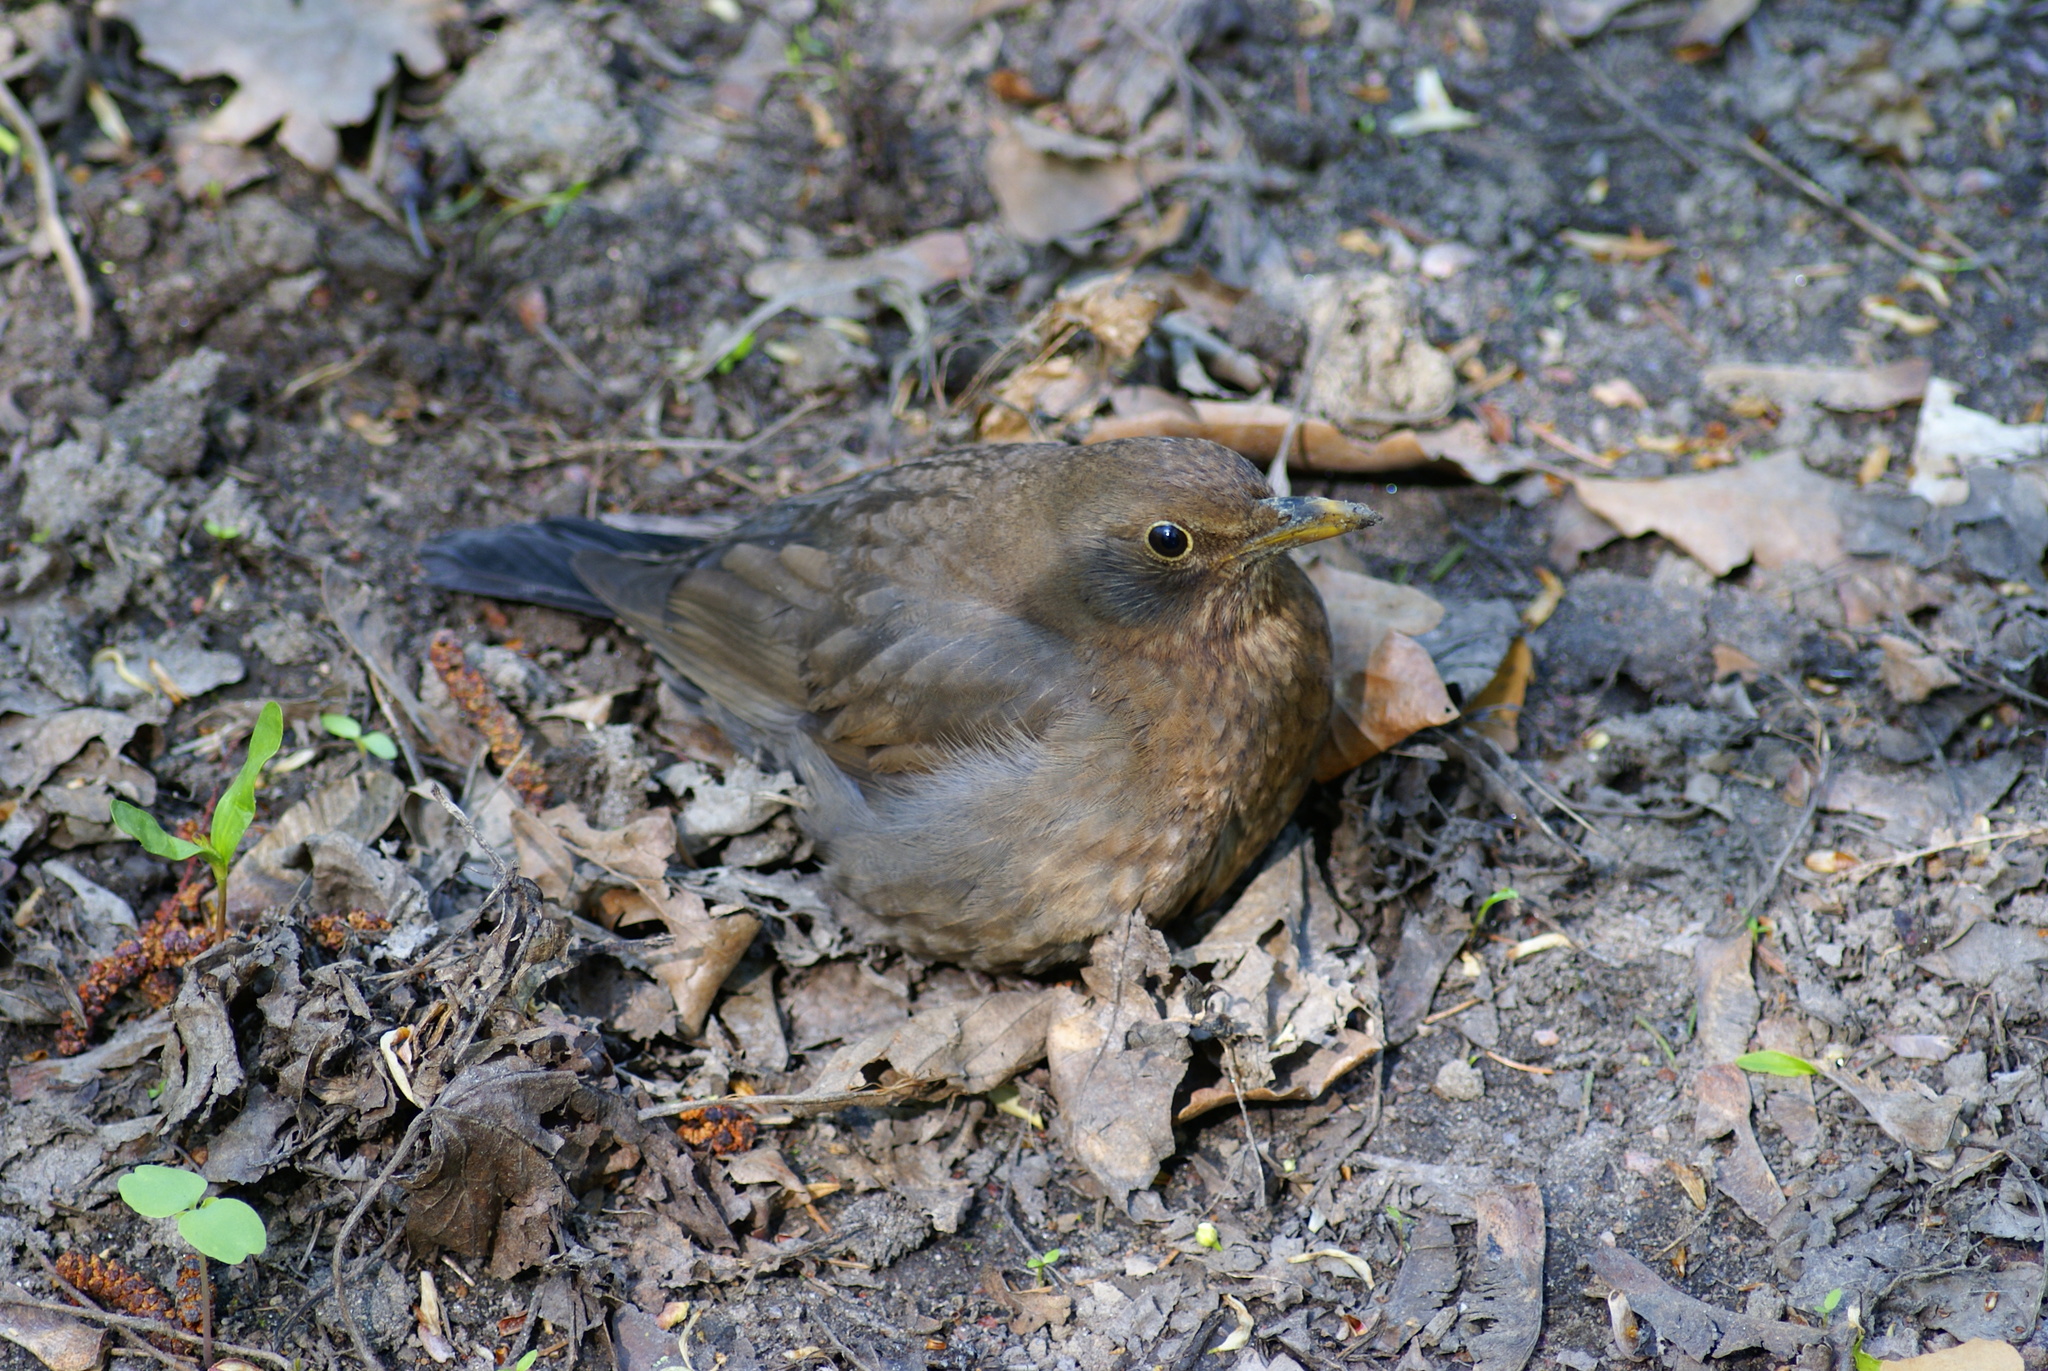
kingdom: Animalia
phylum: Chordata
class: Aves
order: Passeriformes
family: Turdidae
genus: Turdus
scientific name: Turdus merula
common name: Common blackbird
